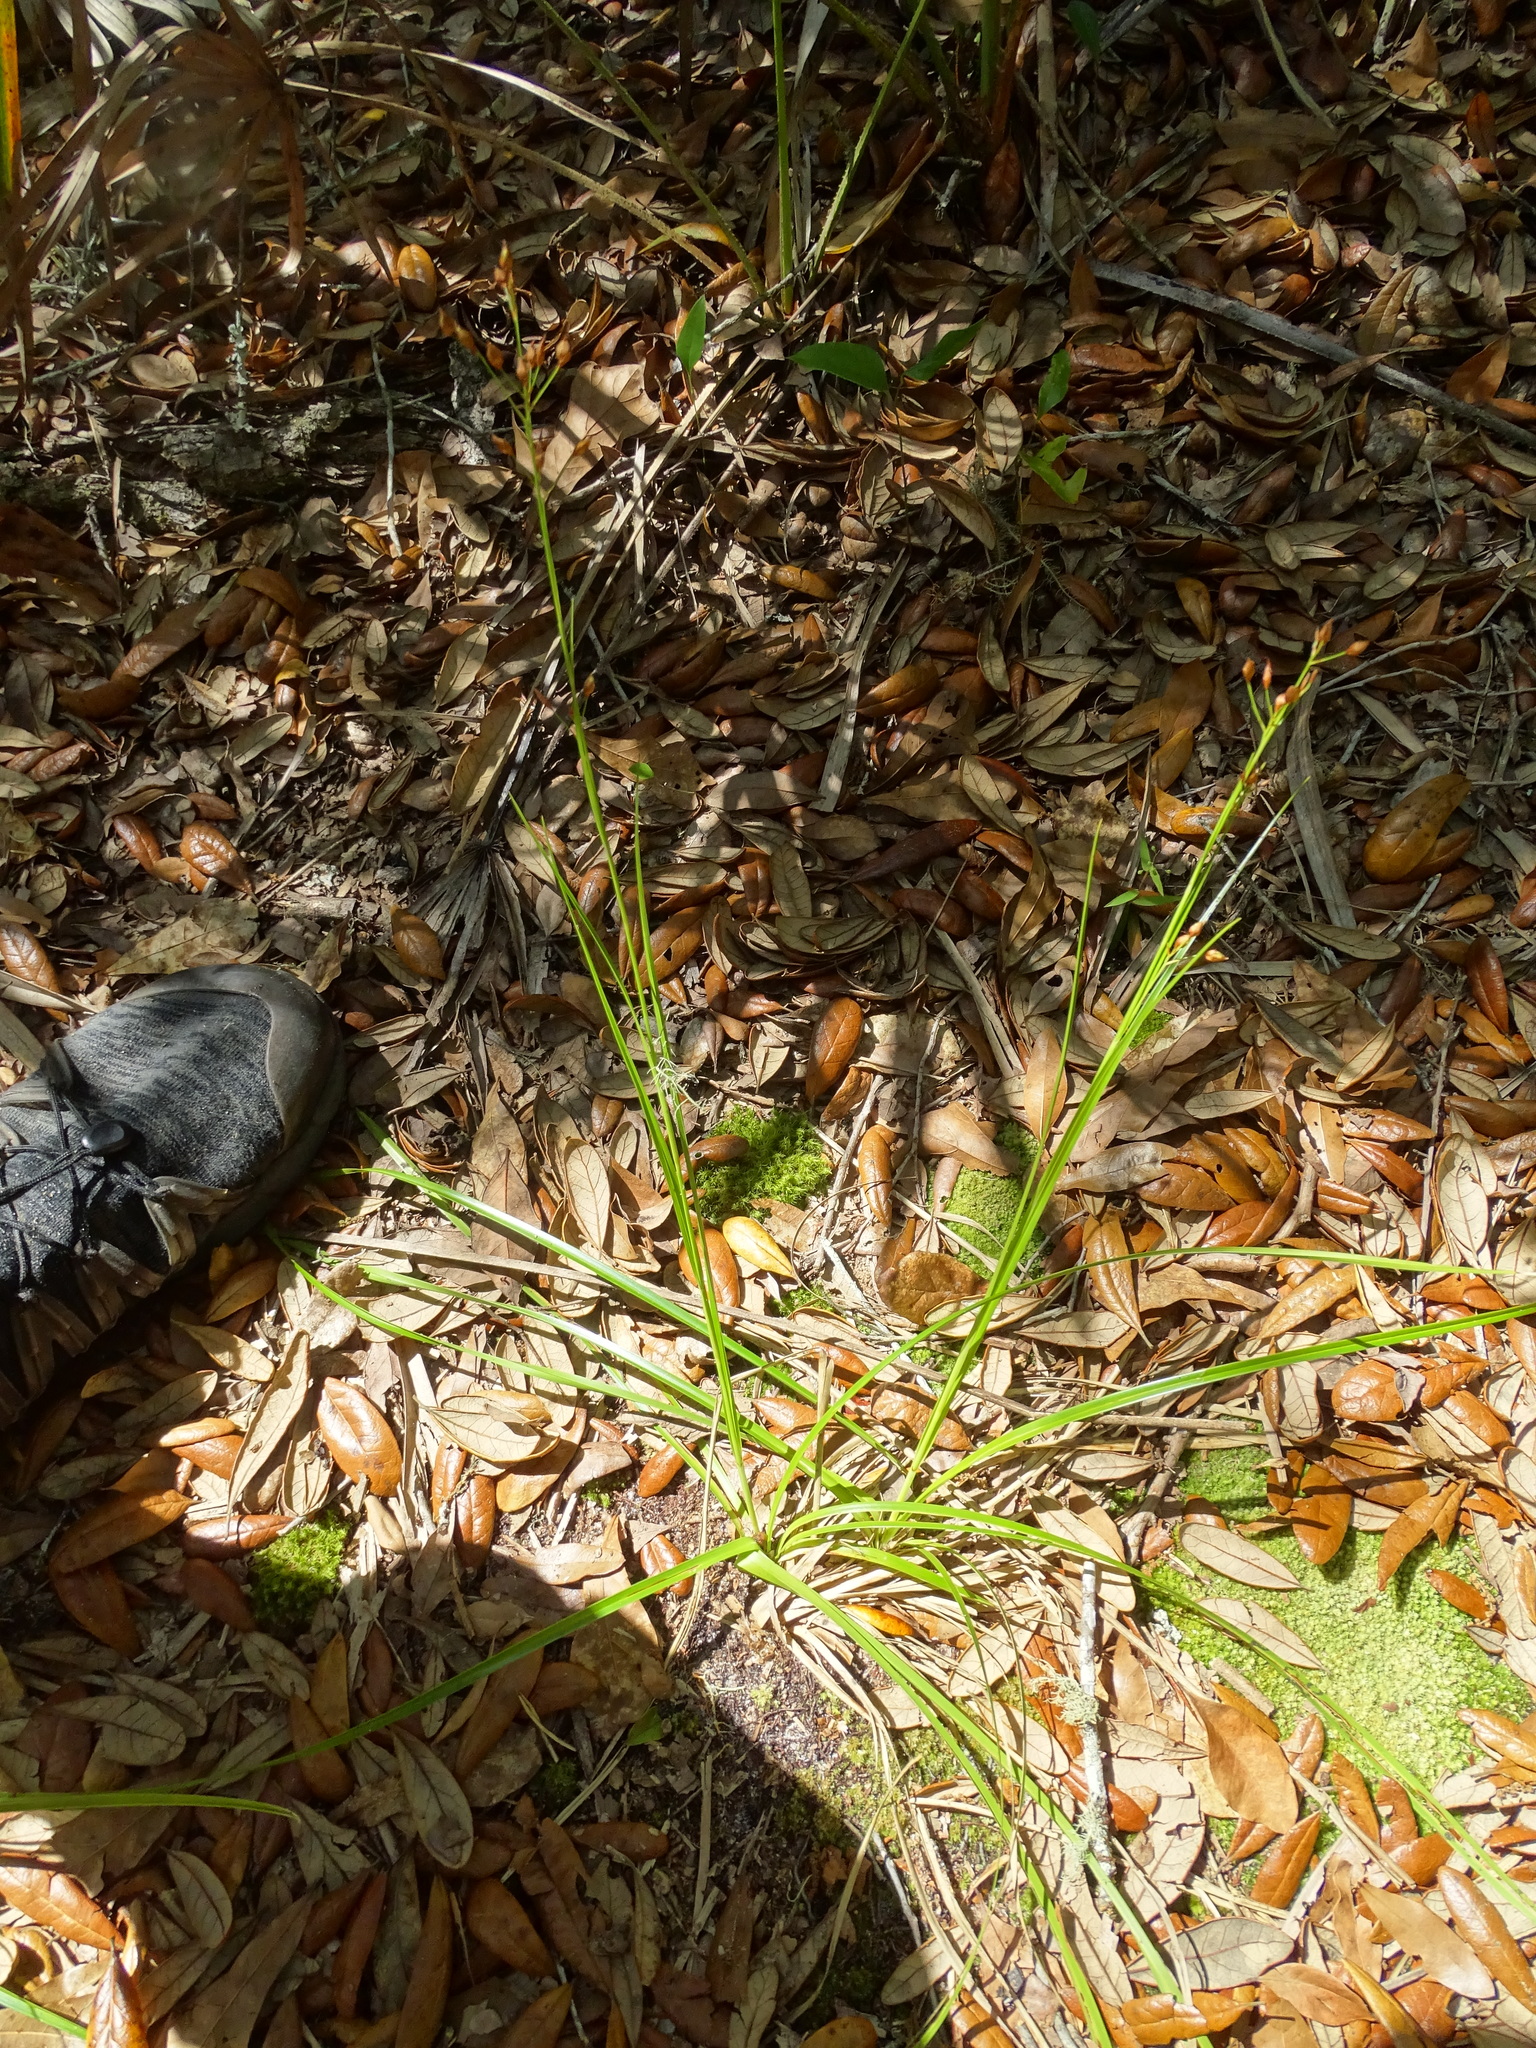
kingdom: Plantae
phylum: Tracheophyta
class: Liliopsida
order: Poales
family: Cyperaceae
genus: Rhynchospora
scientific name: Rhynchospora megalocarpa
